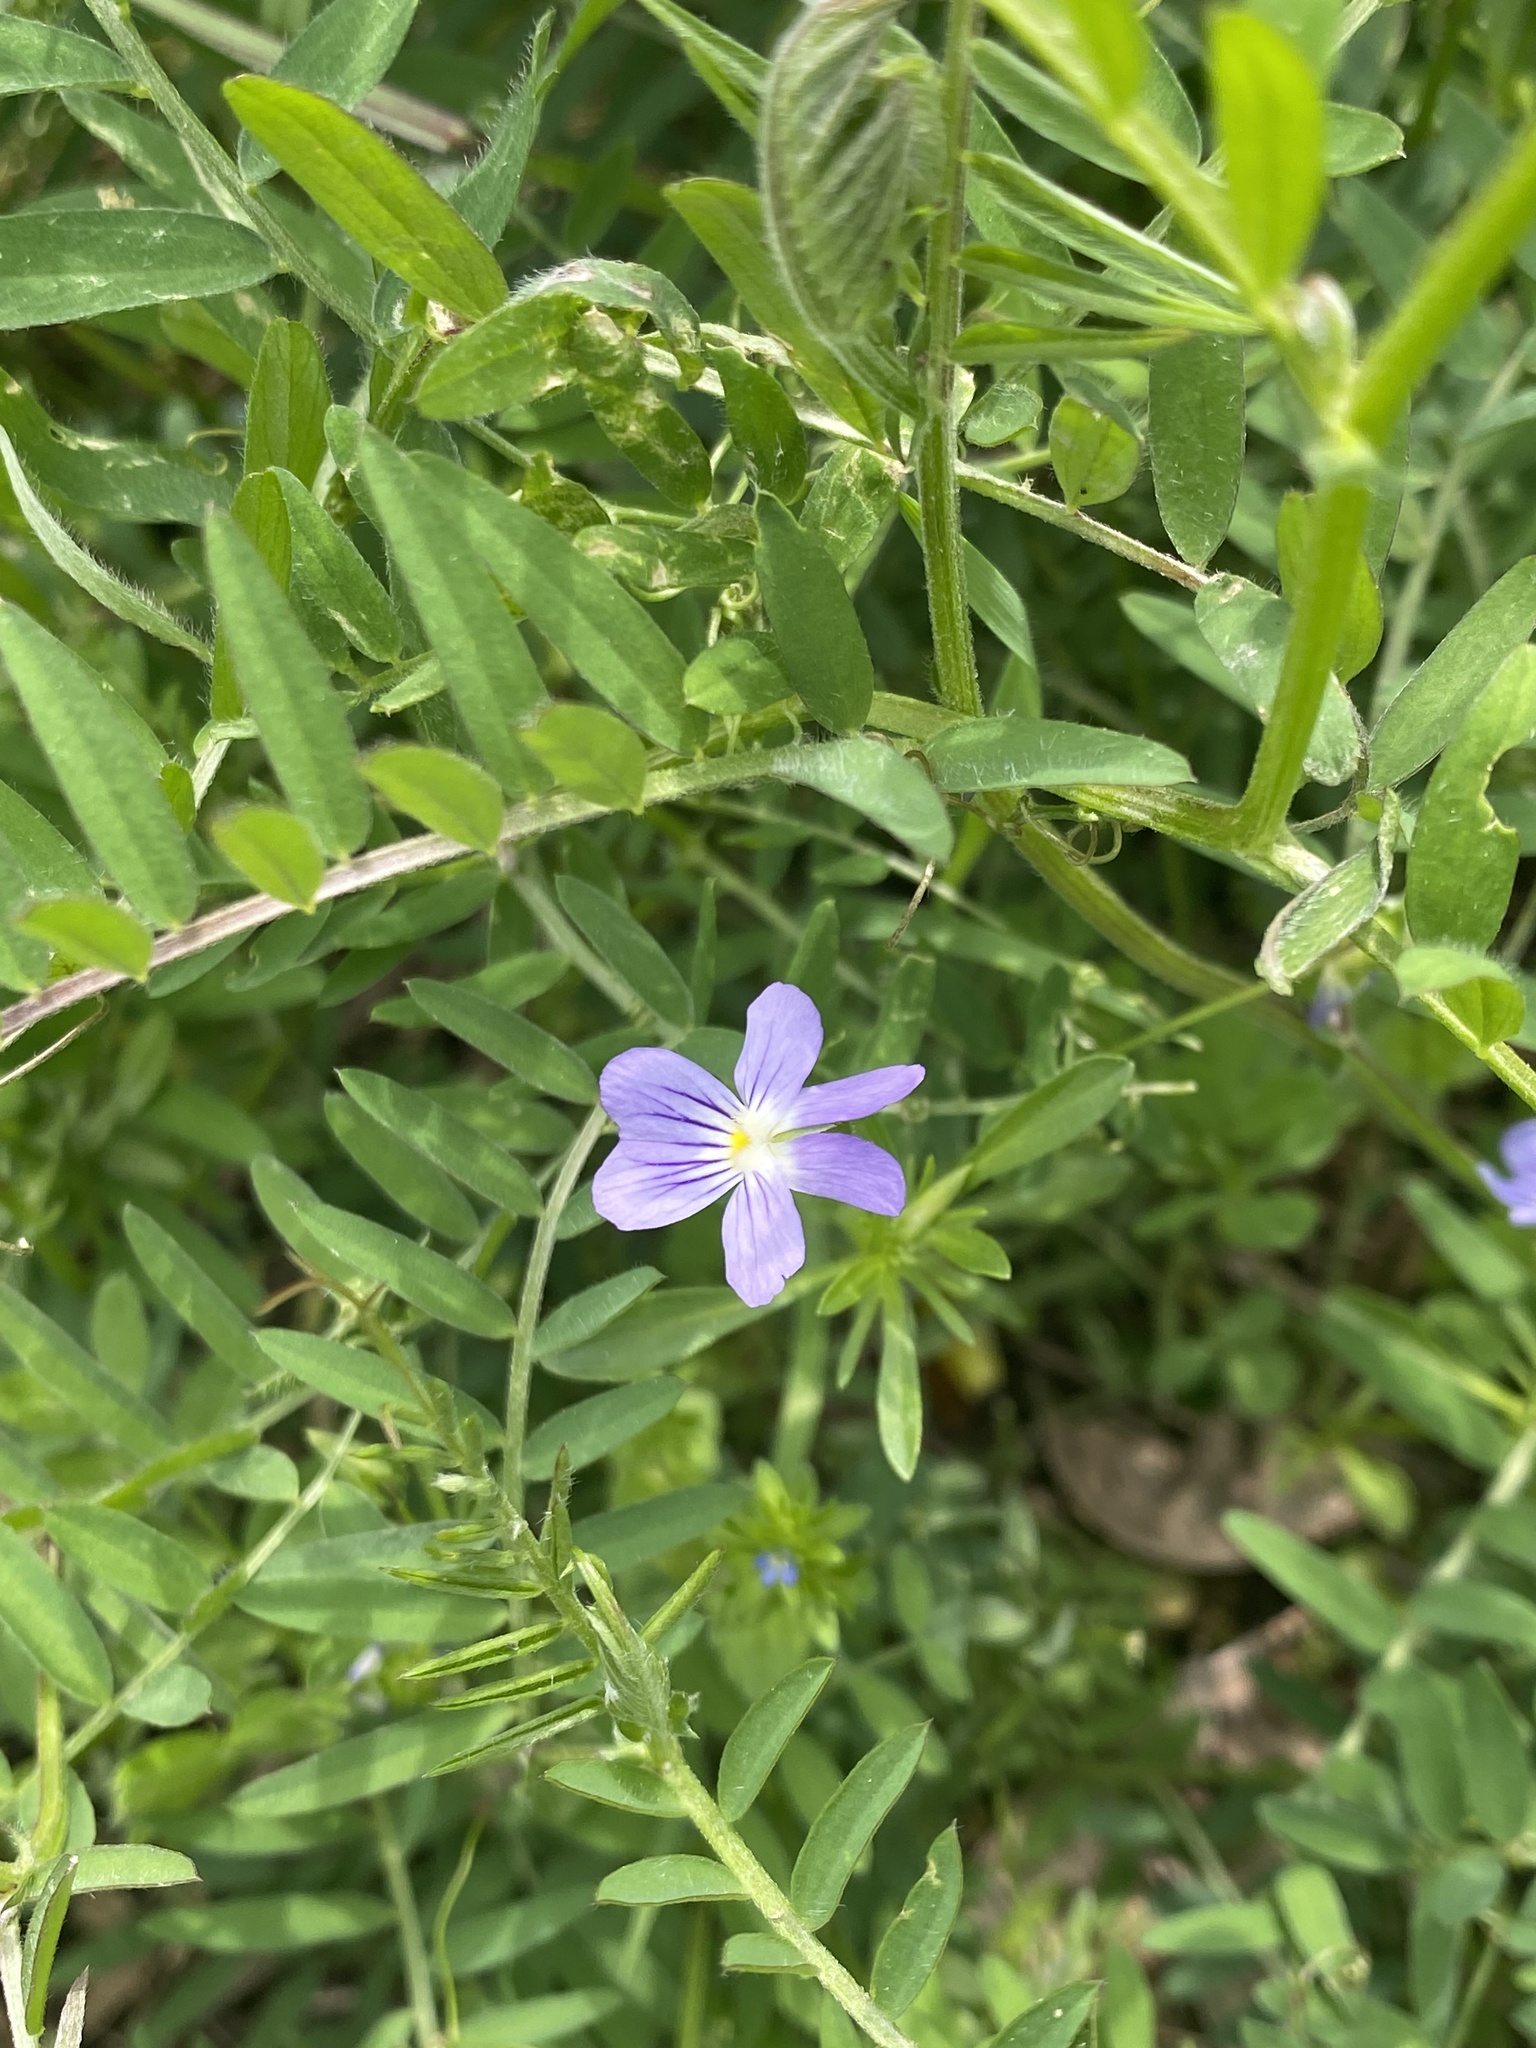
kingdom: Plantae
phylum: Tracheophyta
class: Magnoliopsida
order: Malpighiales
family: Violaceae
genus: Viola
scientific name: Viola rafinesquei
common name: American field pansy
